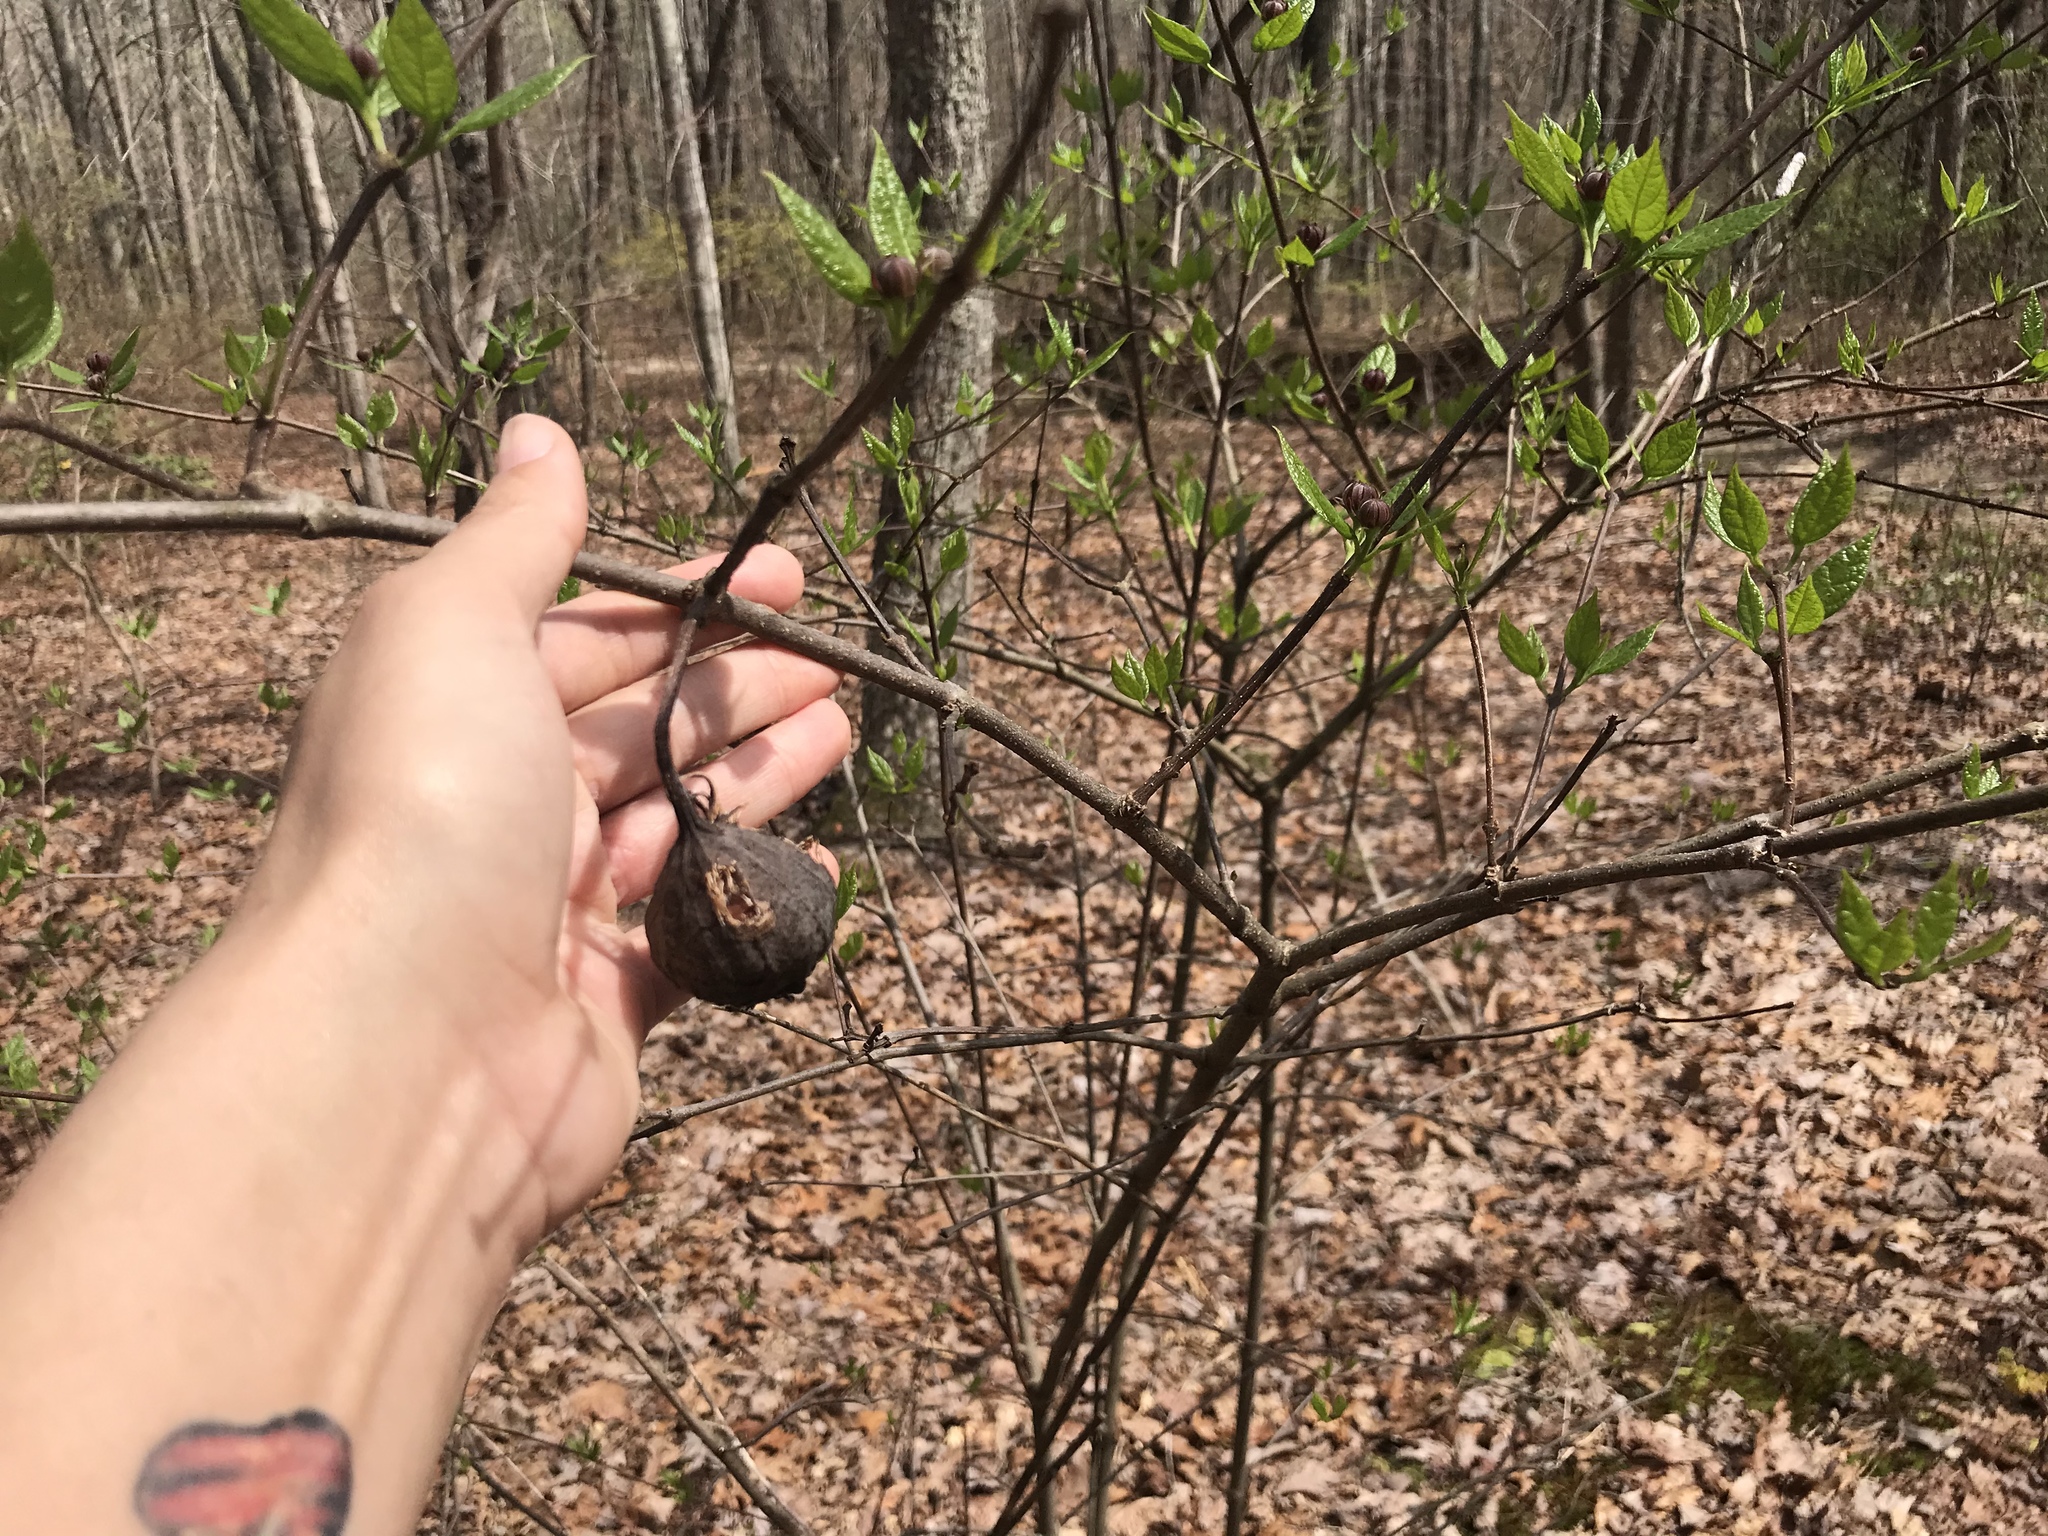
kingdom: Plantae
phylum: Tracheophyta
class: Magnoliopsida
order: Laurales
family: Calycanthaceae
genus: Calycanthus
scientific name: Calycanthus floridus
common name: Carolina-allspice
